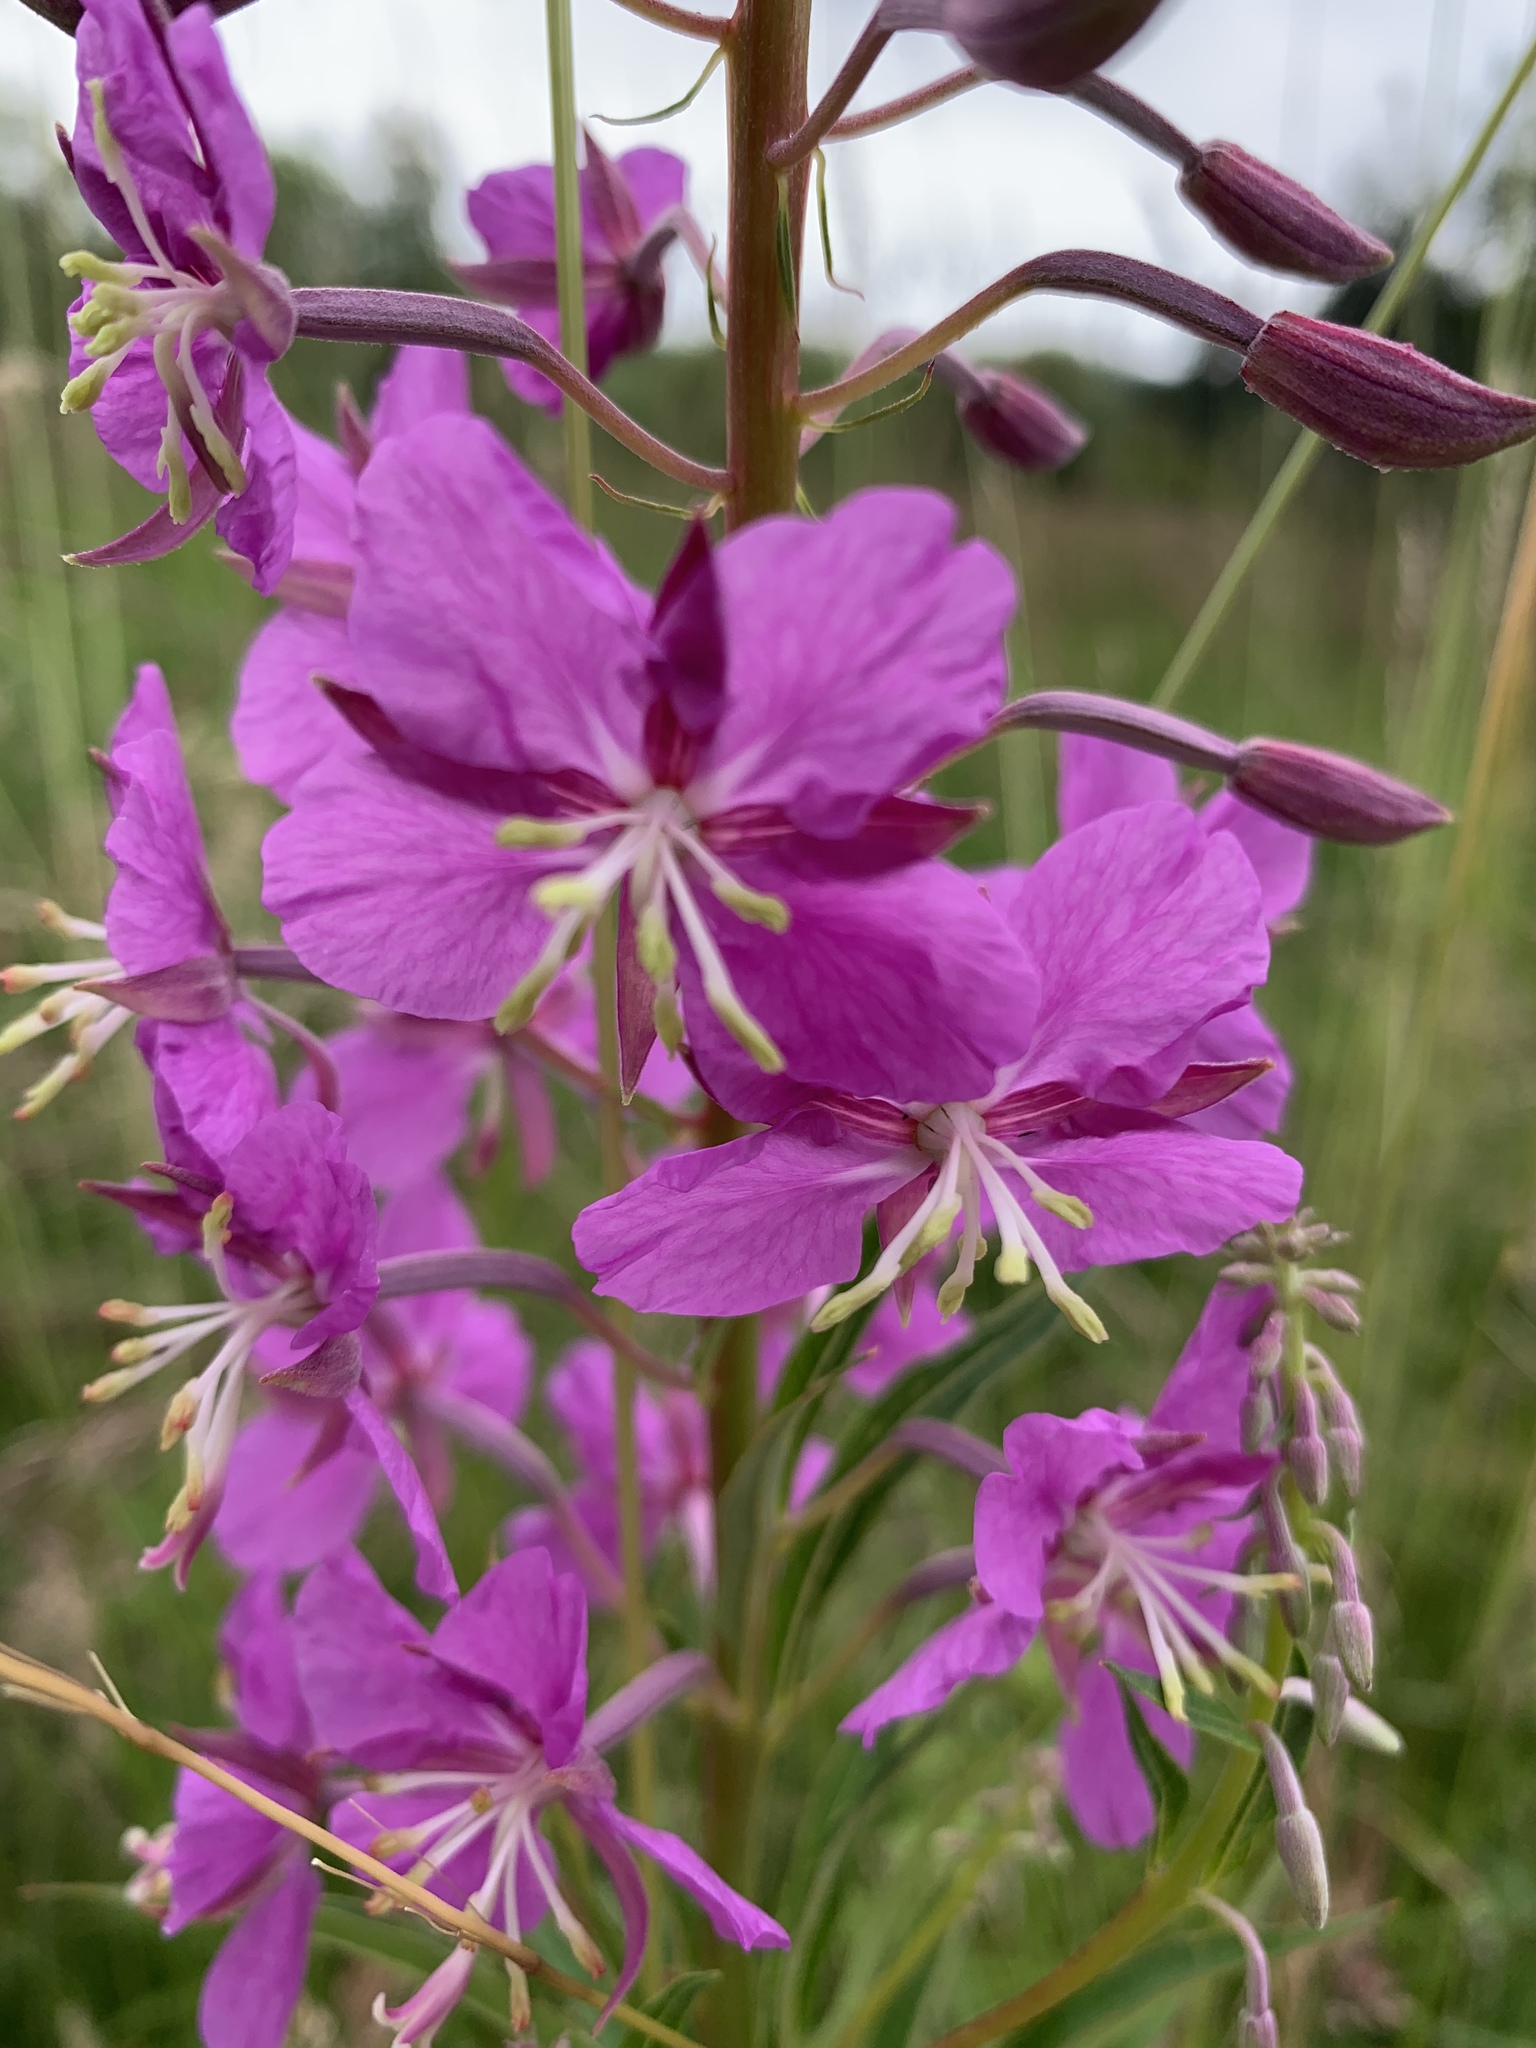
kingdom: Plantae
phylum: Tracheophyta
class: Magnoliopsida
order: Myrtales
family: Onagraceae
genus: Chamaenerion
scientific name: Chamaenerion angustifolium
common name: Fireweed
